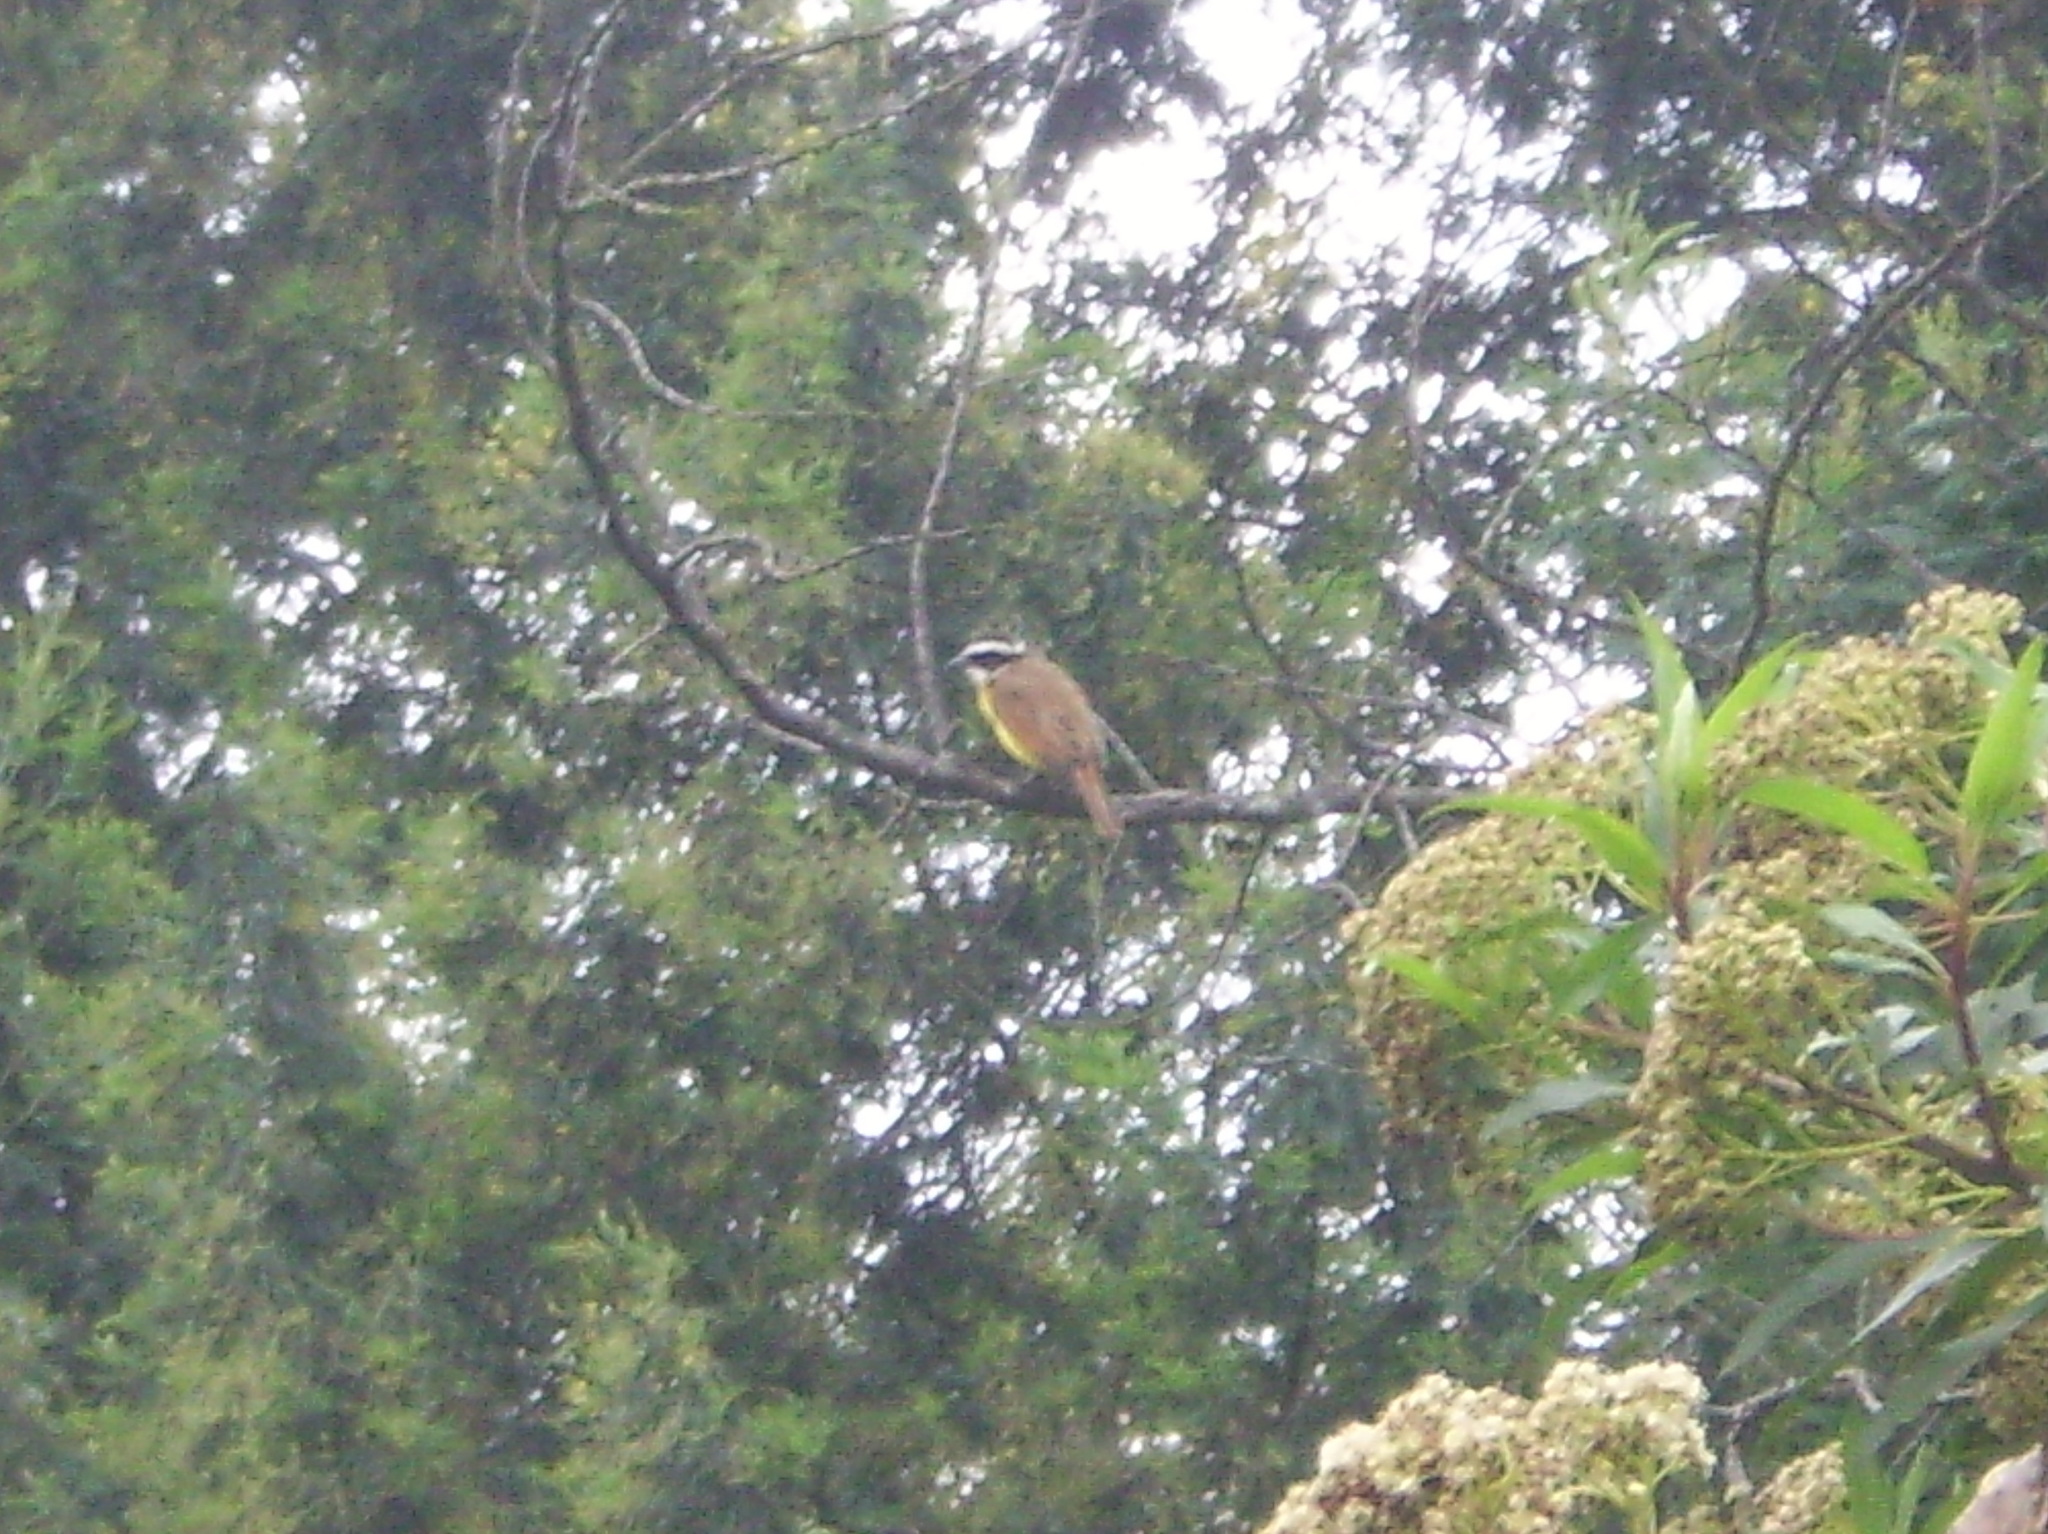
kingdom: Animalia
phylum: Chordata
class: Aves
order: Passeriformes
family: Tyrannidae
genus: Pitangus
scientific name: Pitangus sulphuratus
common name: Great kiskadee
